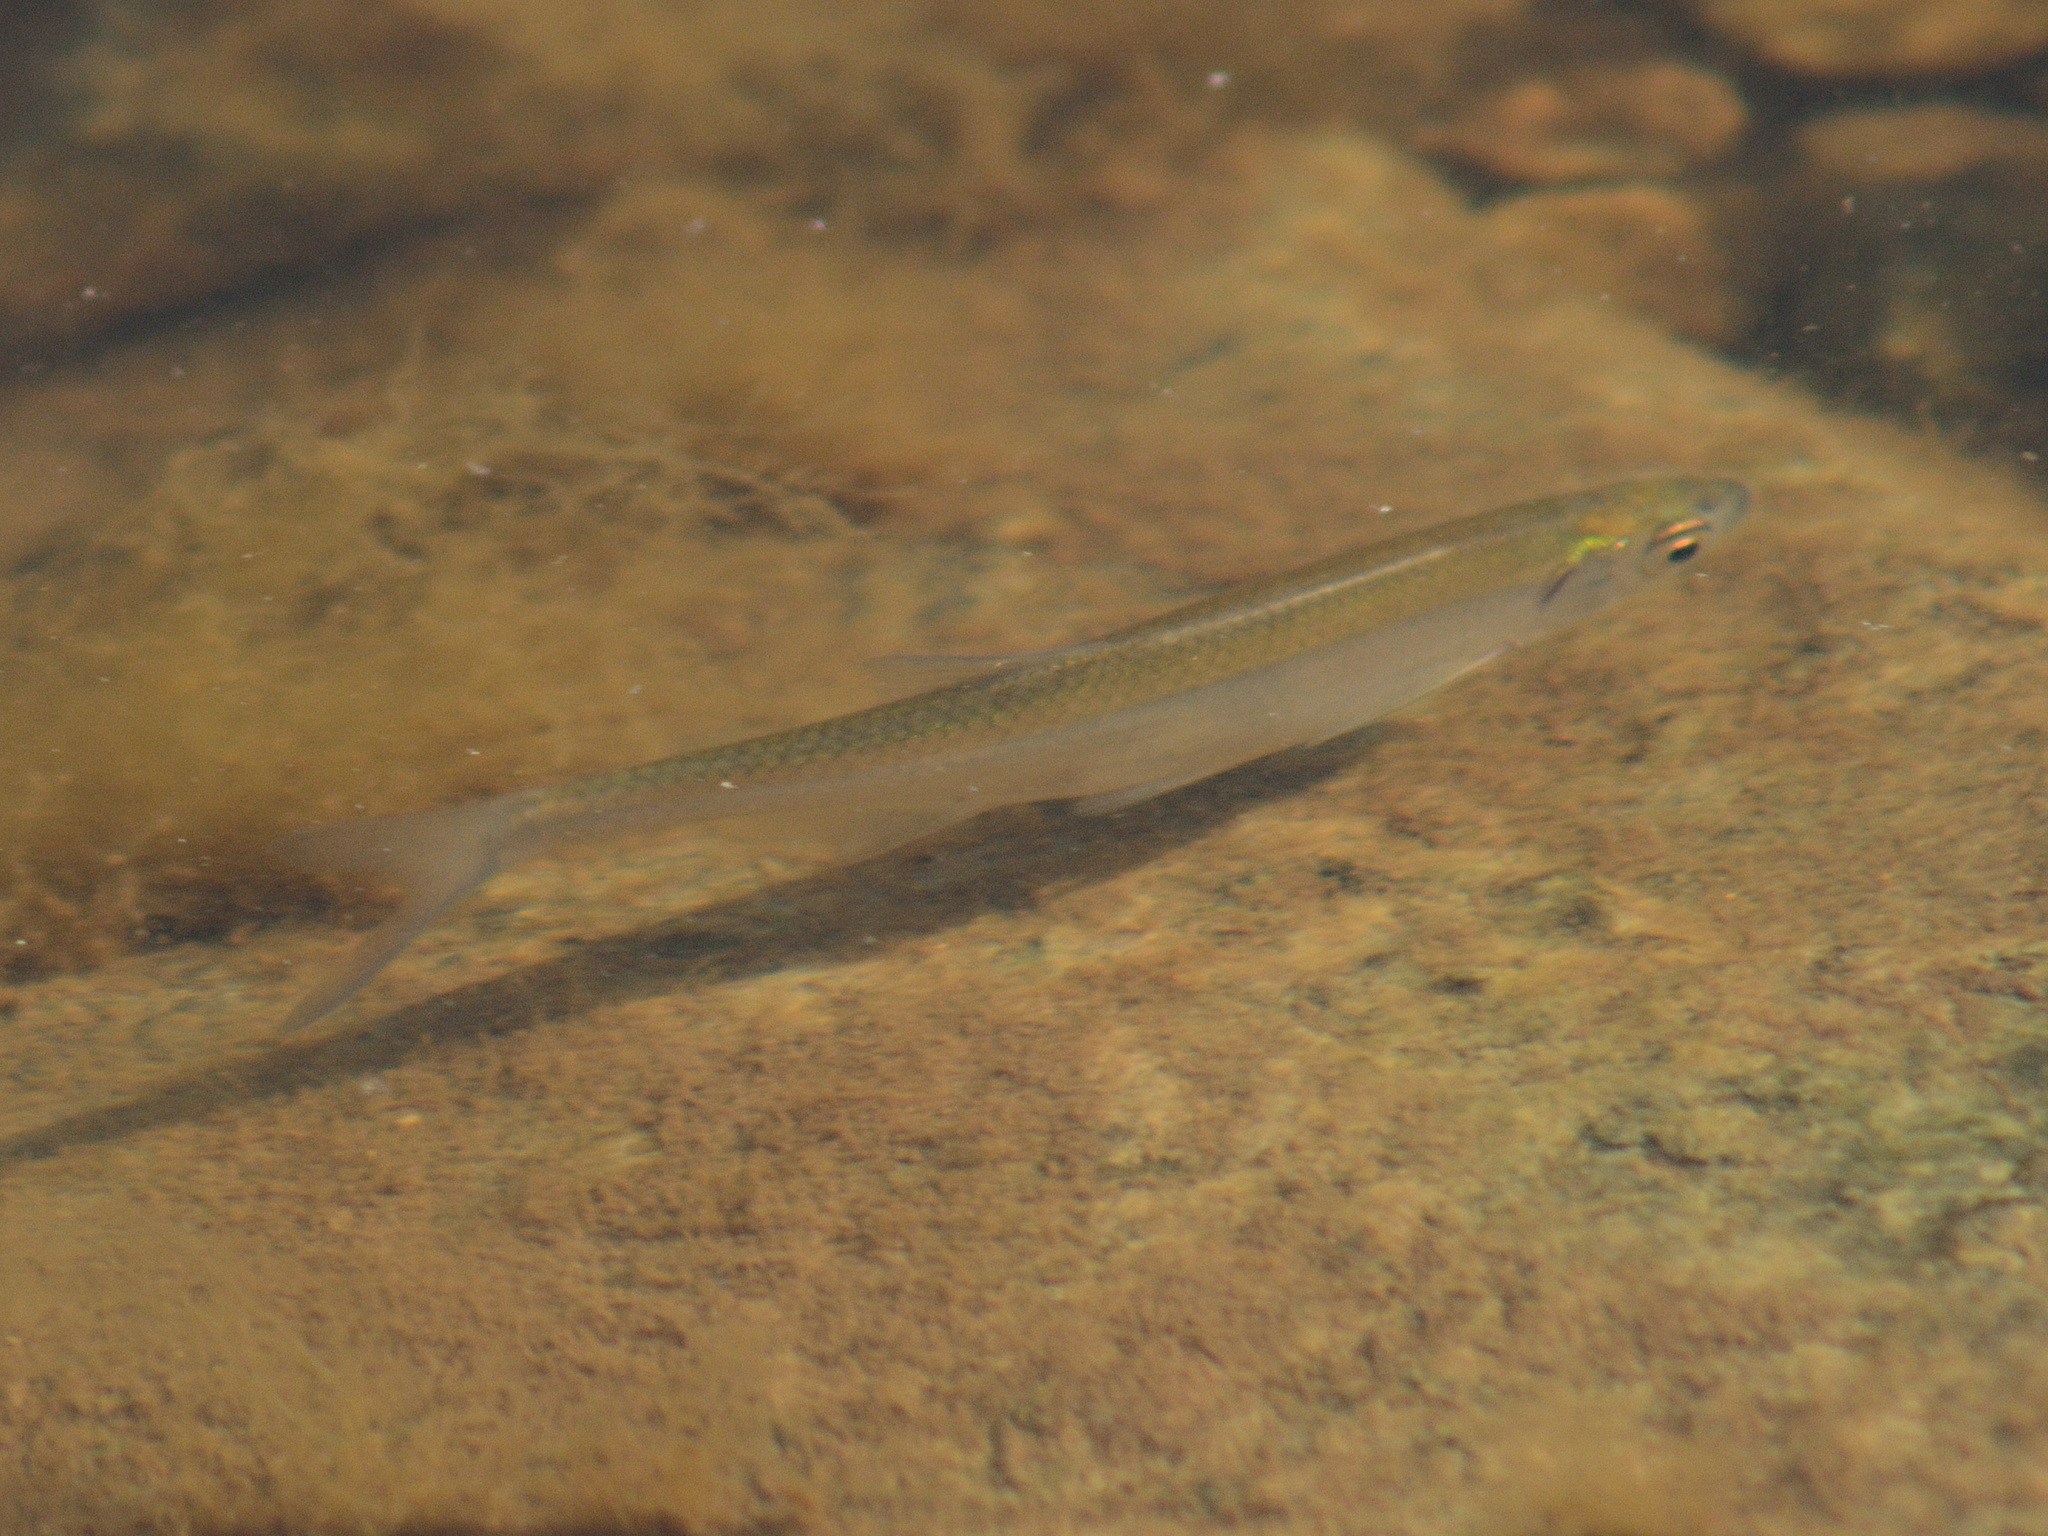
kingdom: Animalia
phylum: Chordata
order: Cypriniformes
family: Cyprinidae
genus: Alburnus
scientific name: Alburnus alburnus
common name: Bleak
